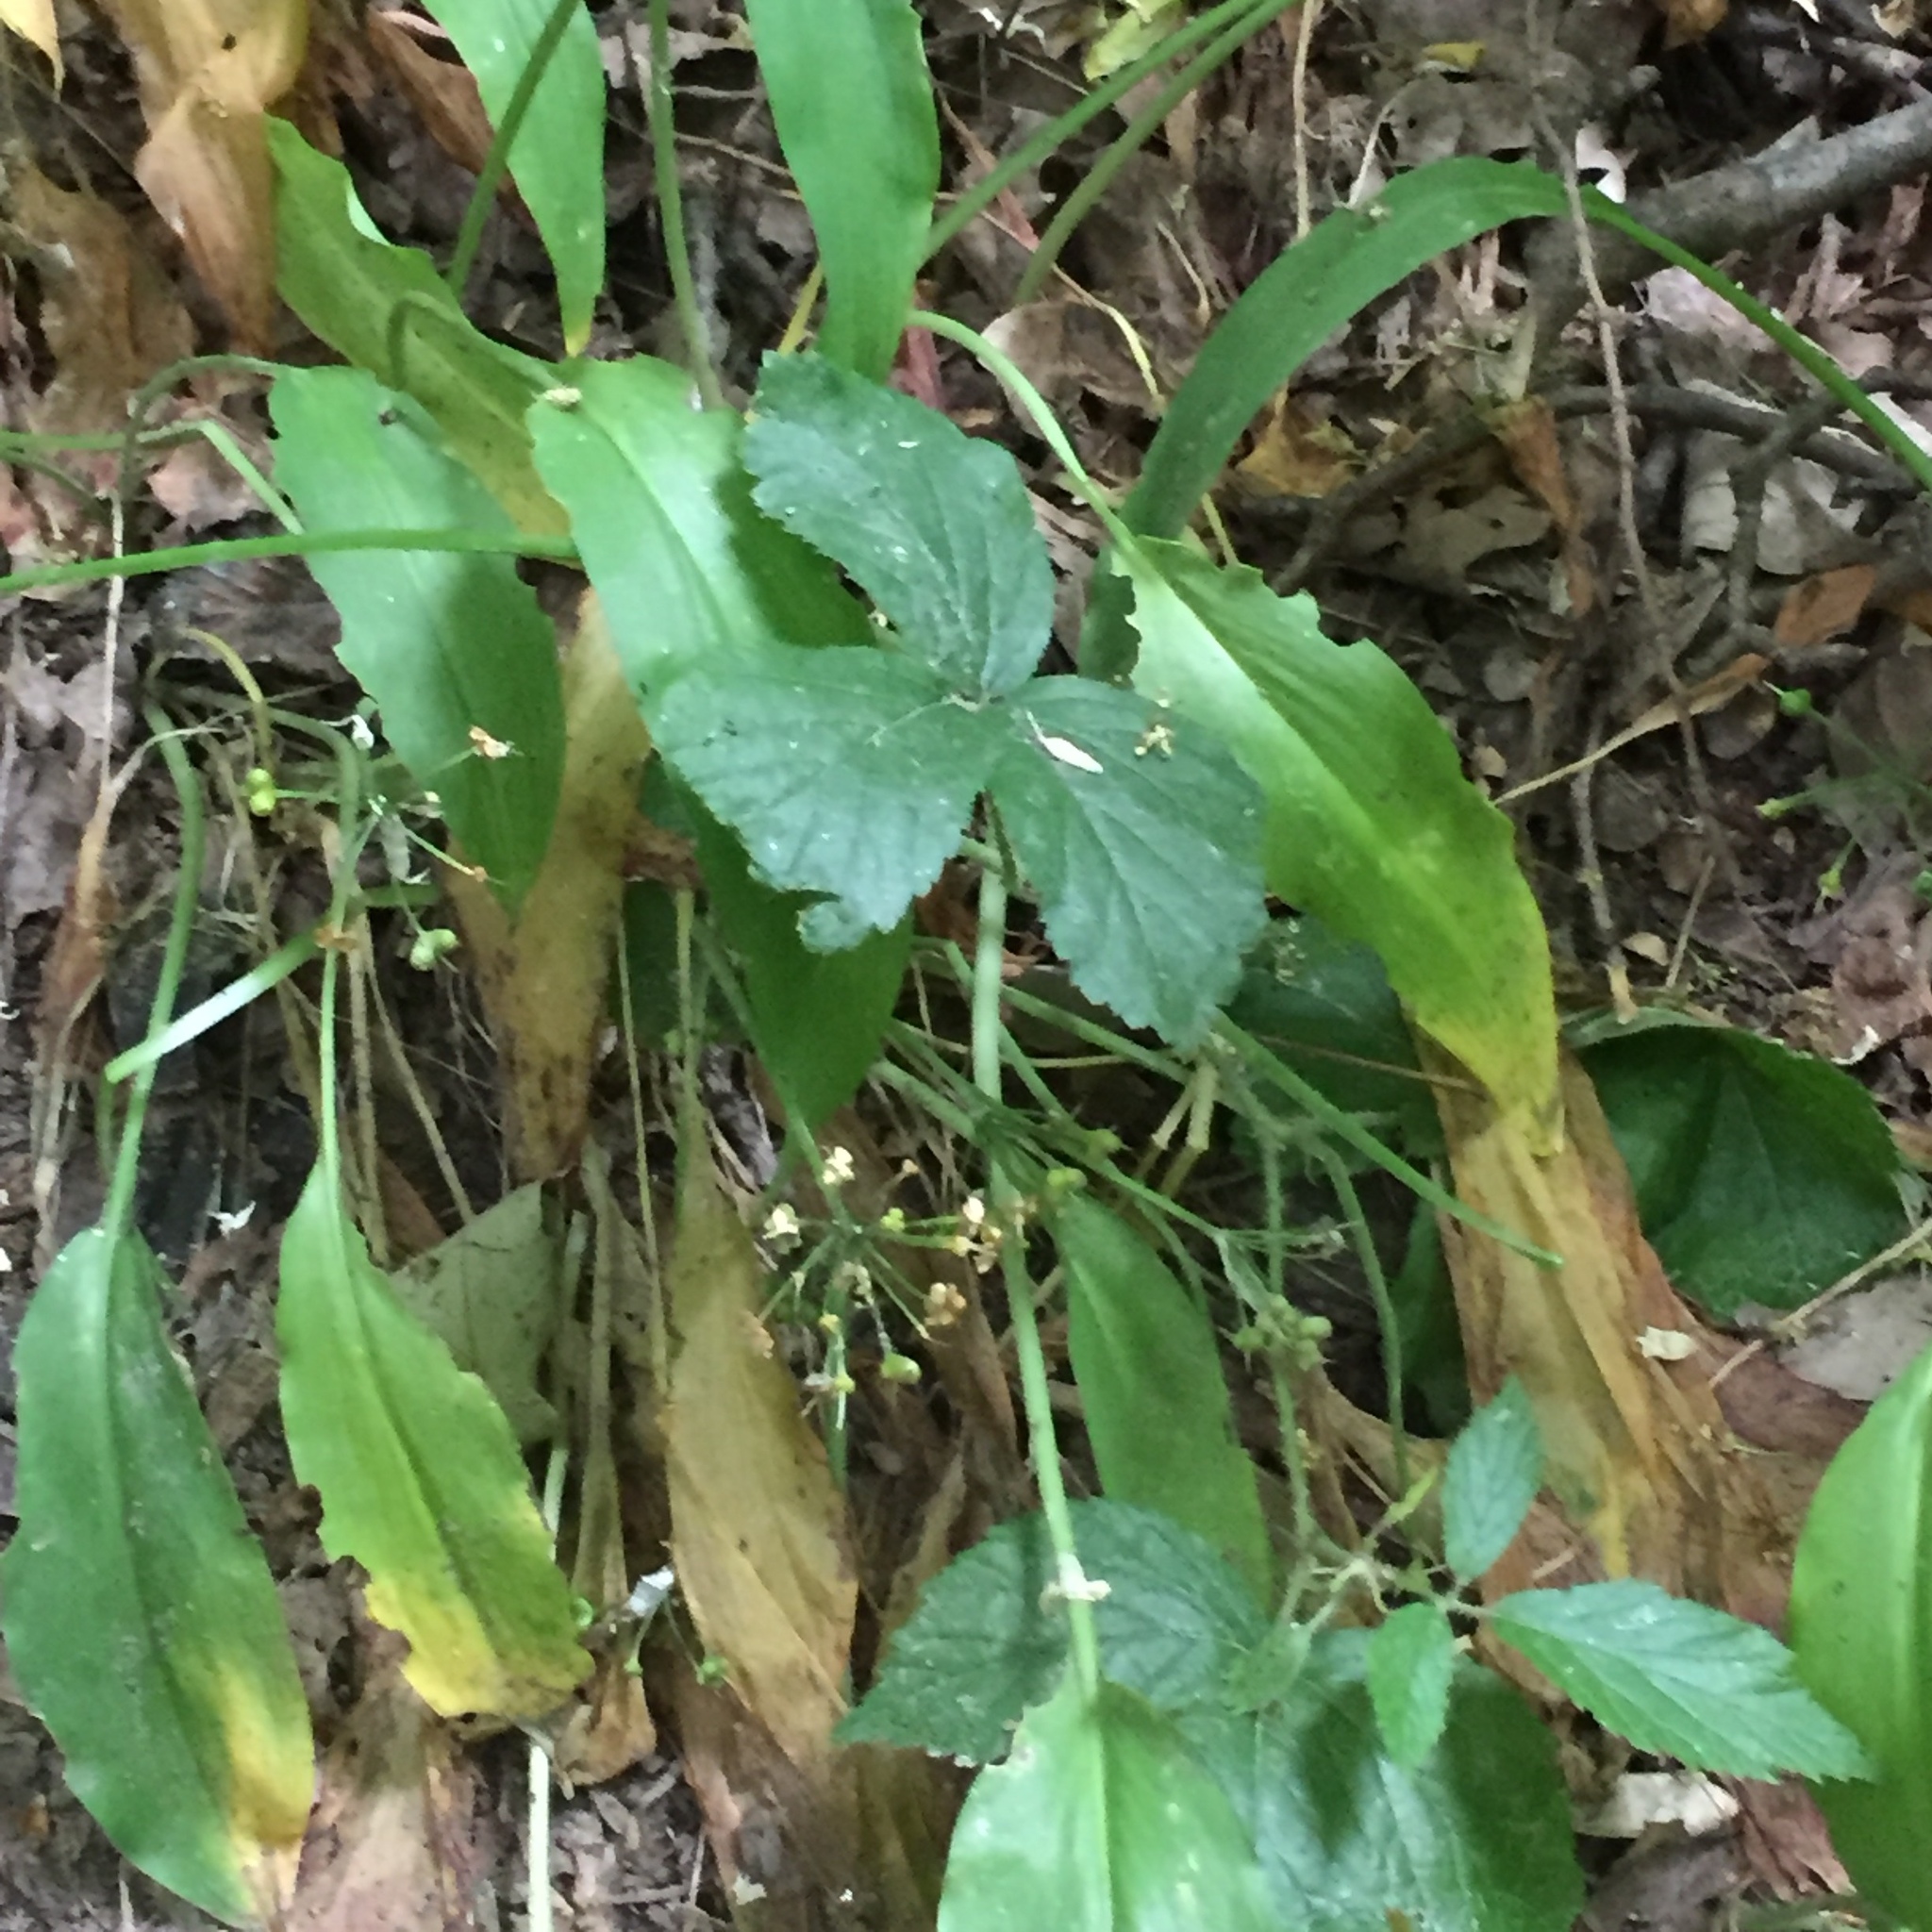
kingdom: Plantae
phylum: Tracheophyta
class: Liliopsida
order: Asparagales
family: Amaryllidaceae
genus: Allium
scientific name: Allium ursinum
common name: Ramsons
